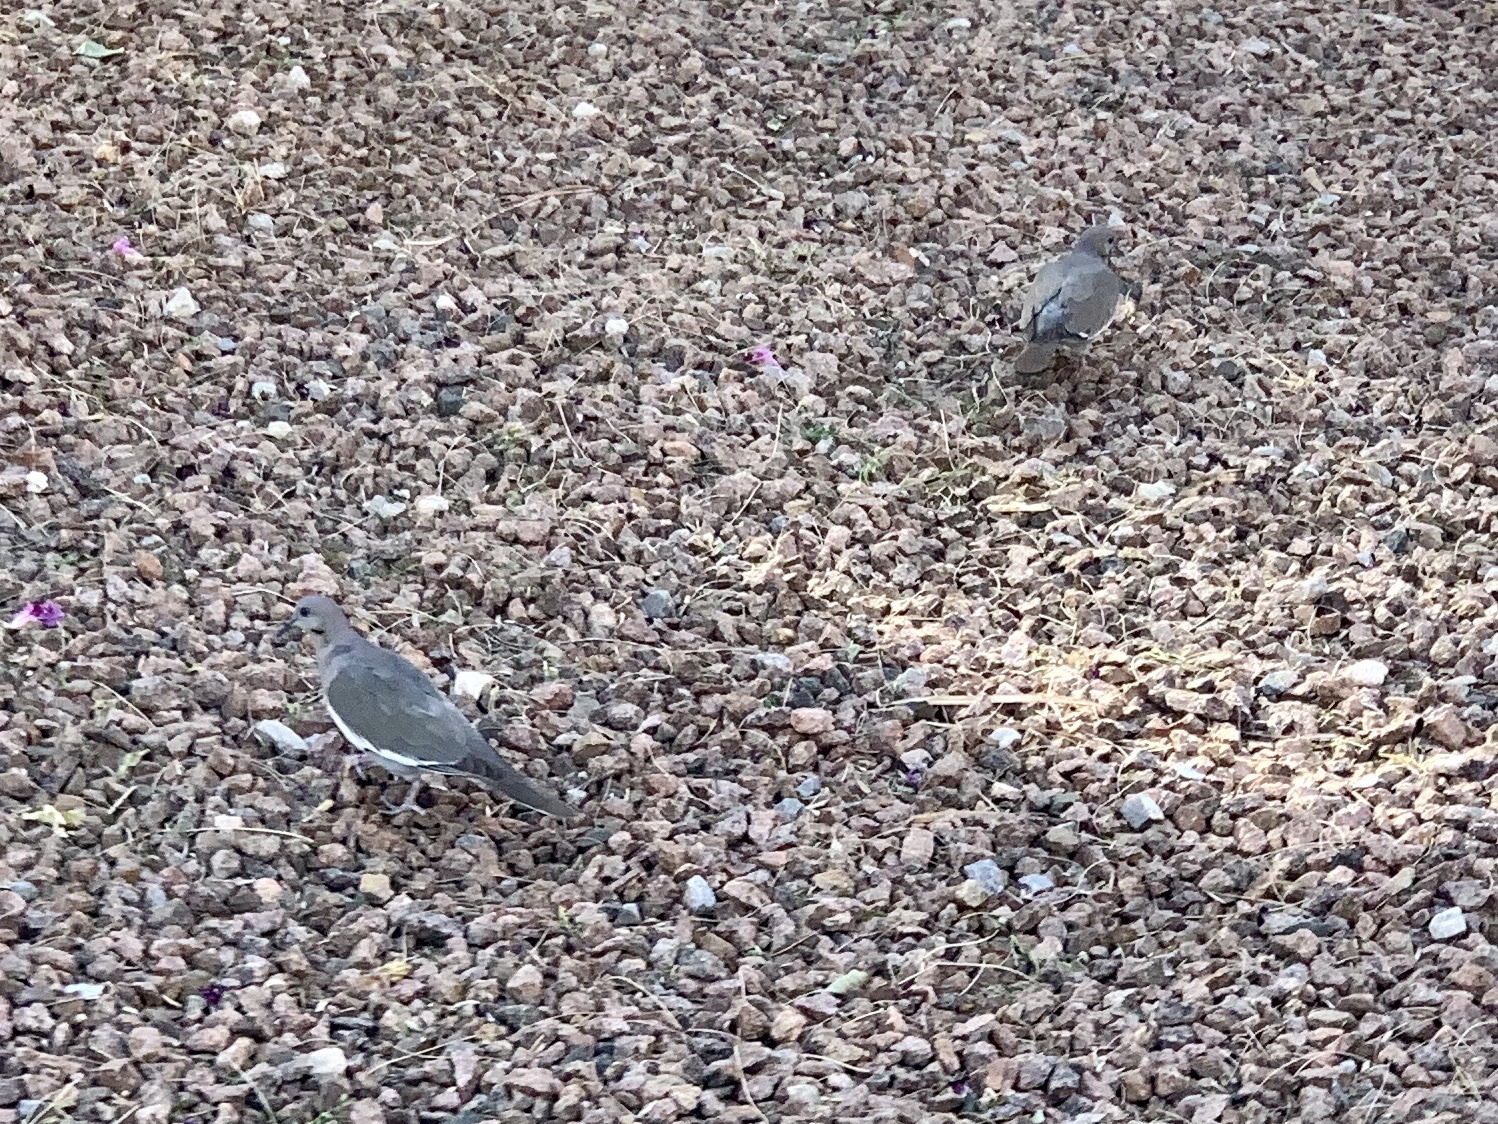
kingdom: Animalia
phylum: Chordata
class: Aves
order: Columbiformes
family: Columbidae
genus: Zenaida
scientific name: Zenaida asiatica
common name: White-winged dove
